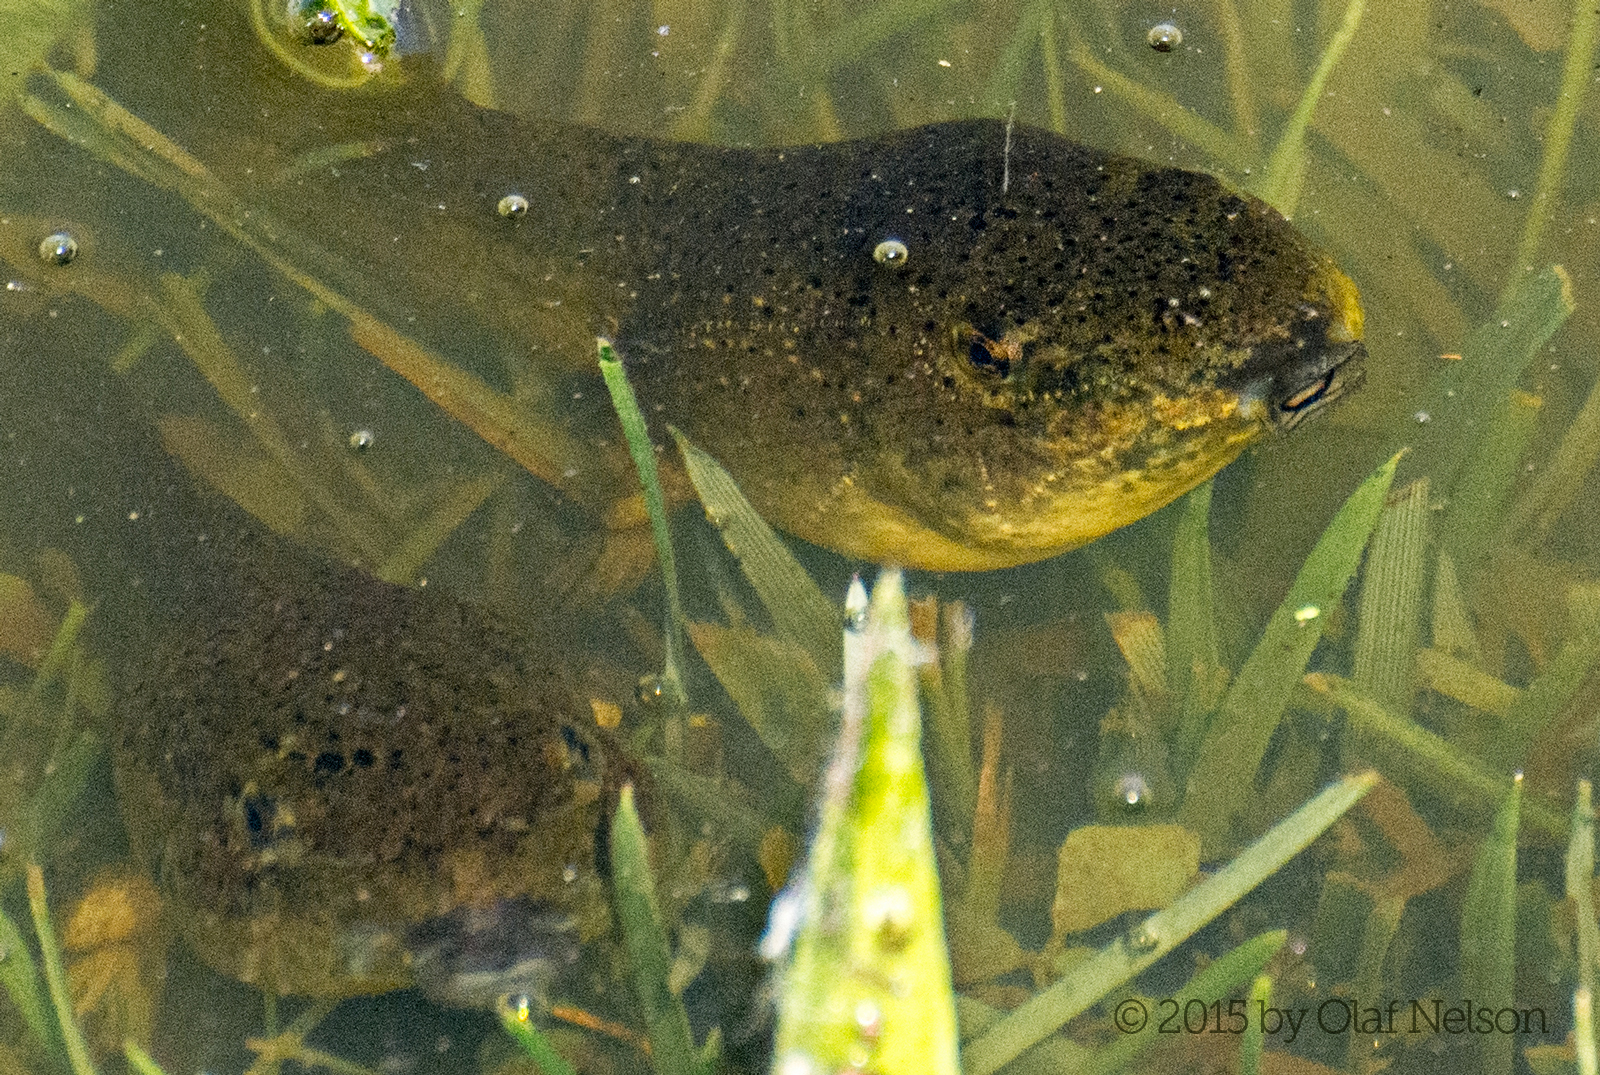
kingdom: Animalia
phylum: Chordata
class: Amphibia
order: Anura
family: Ranidae
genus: Lithobates
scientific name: Lithobates catesbeianus
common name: American bullfrog
